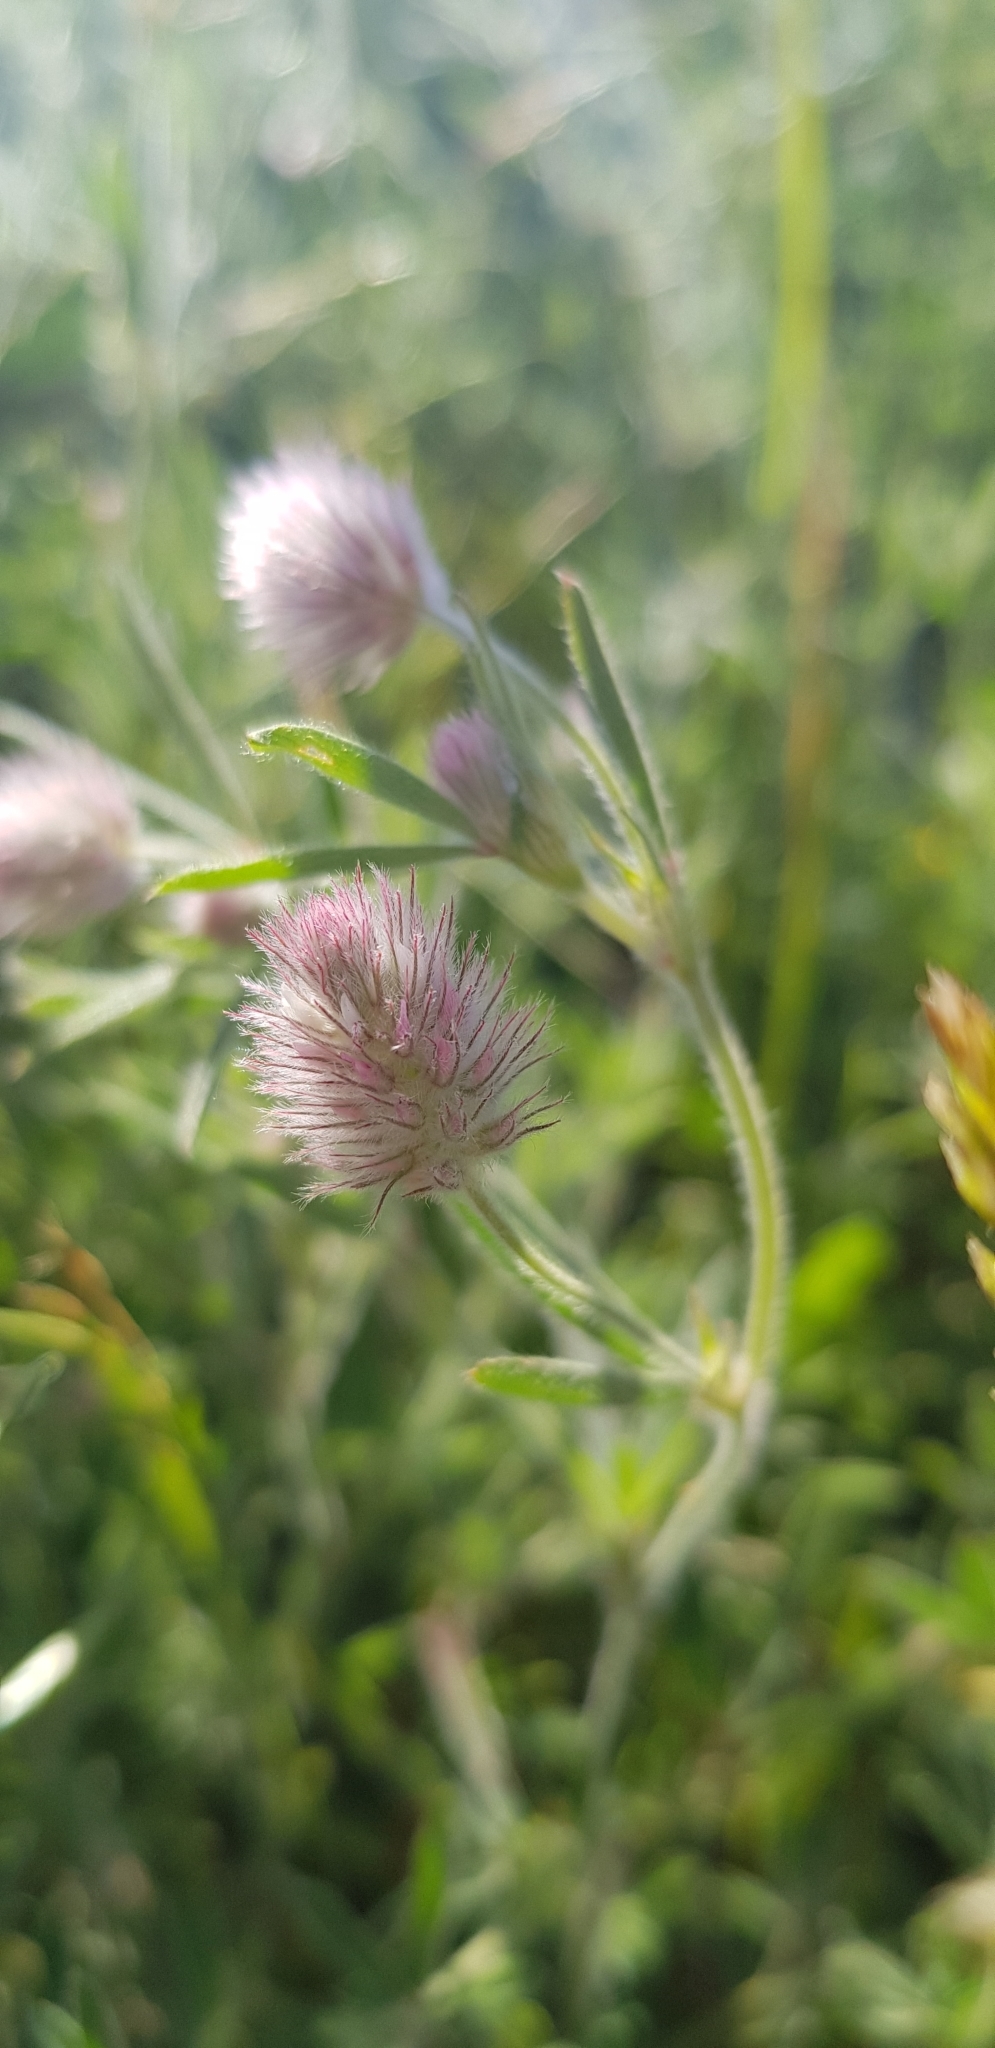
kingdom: Plantae
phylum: Tracheophyta
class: Magnoliopsida
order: Fabales
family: Fabaceae
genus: Trifolium
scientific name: Trifolium arvense
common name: Hare's-foot clover
